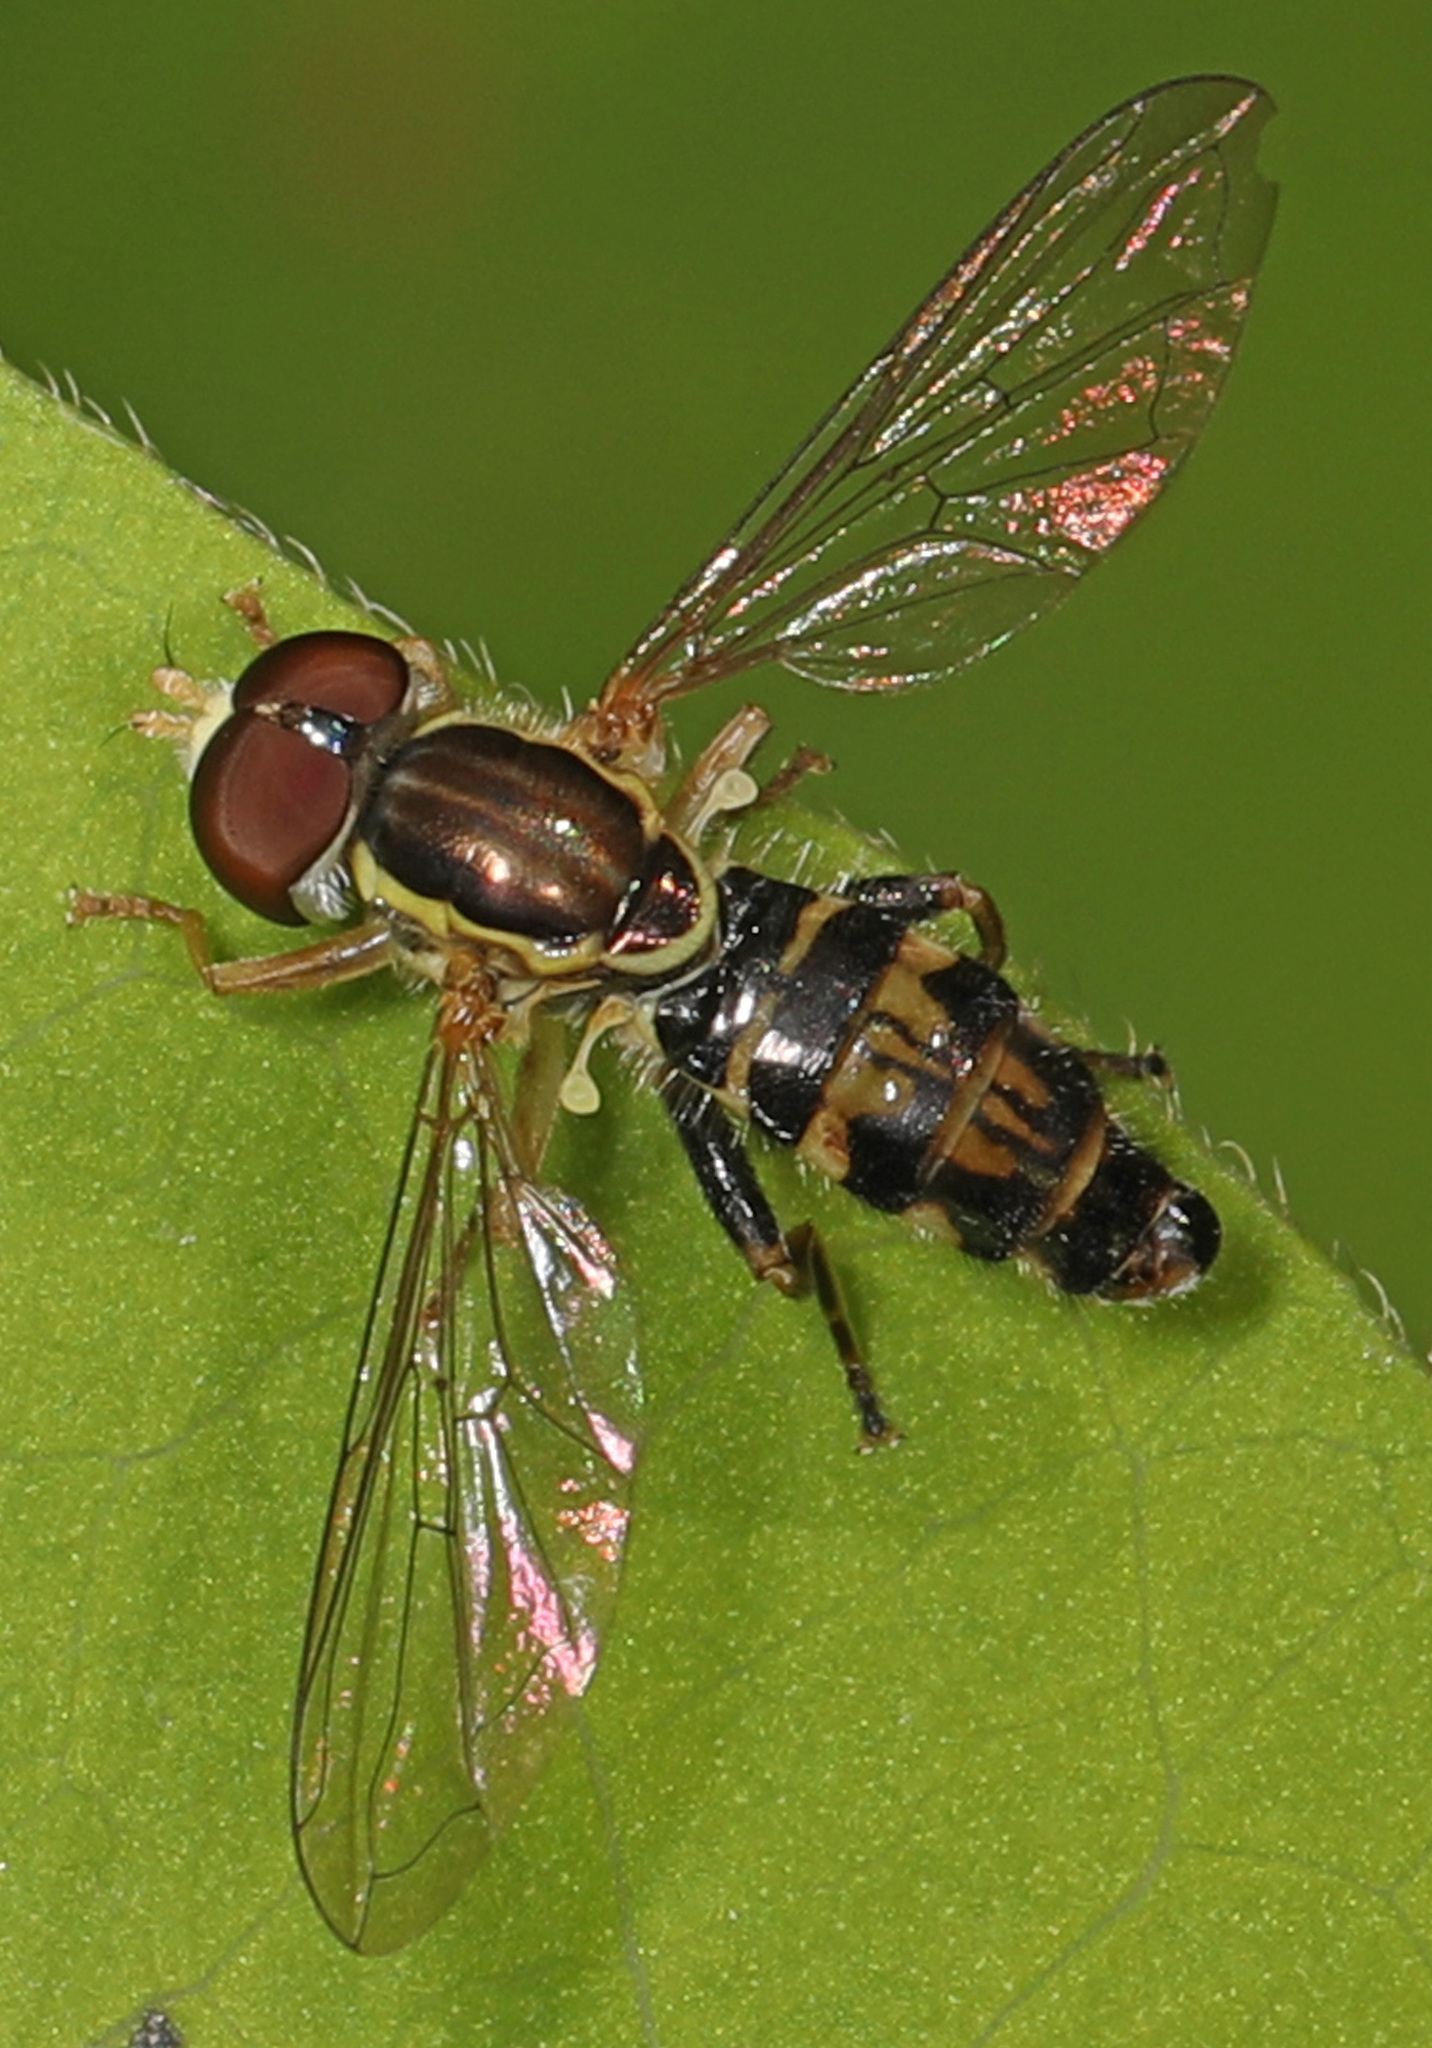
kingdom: Animalia
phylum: Arthropoda
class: Insecta
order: Diptera
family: Syrphidae
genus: Toxomerus
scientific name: Toxomerus geminatus
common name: Eastern calligrapher
